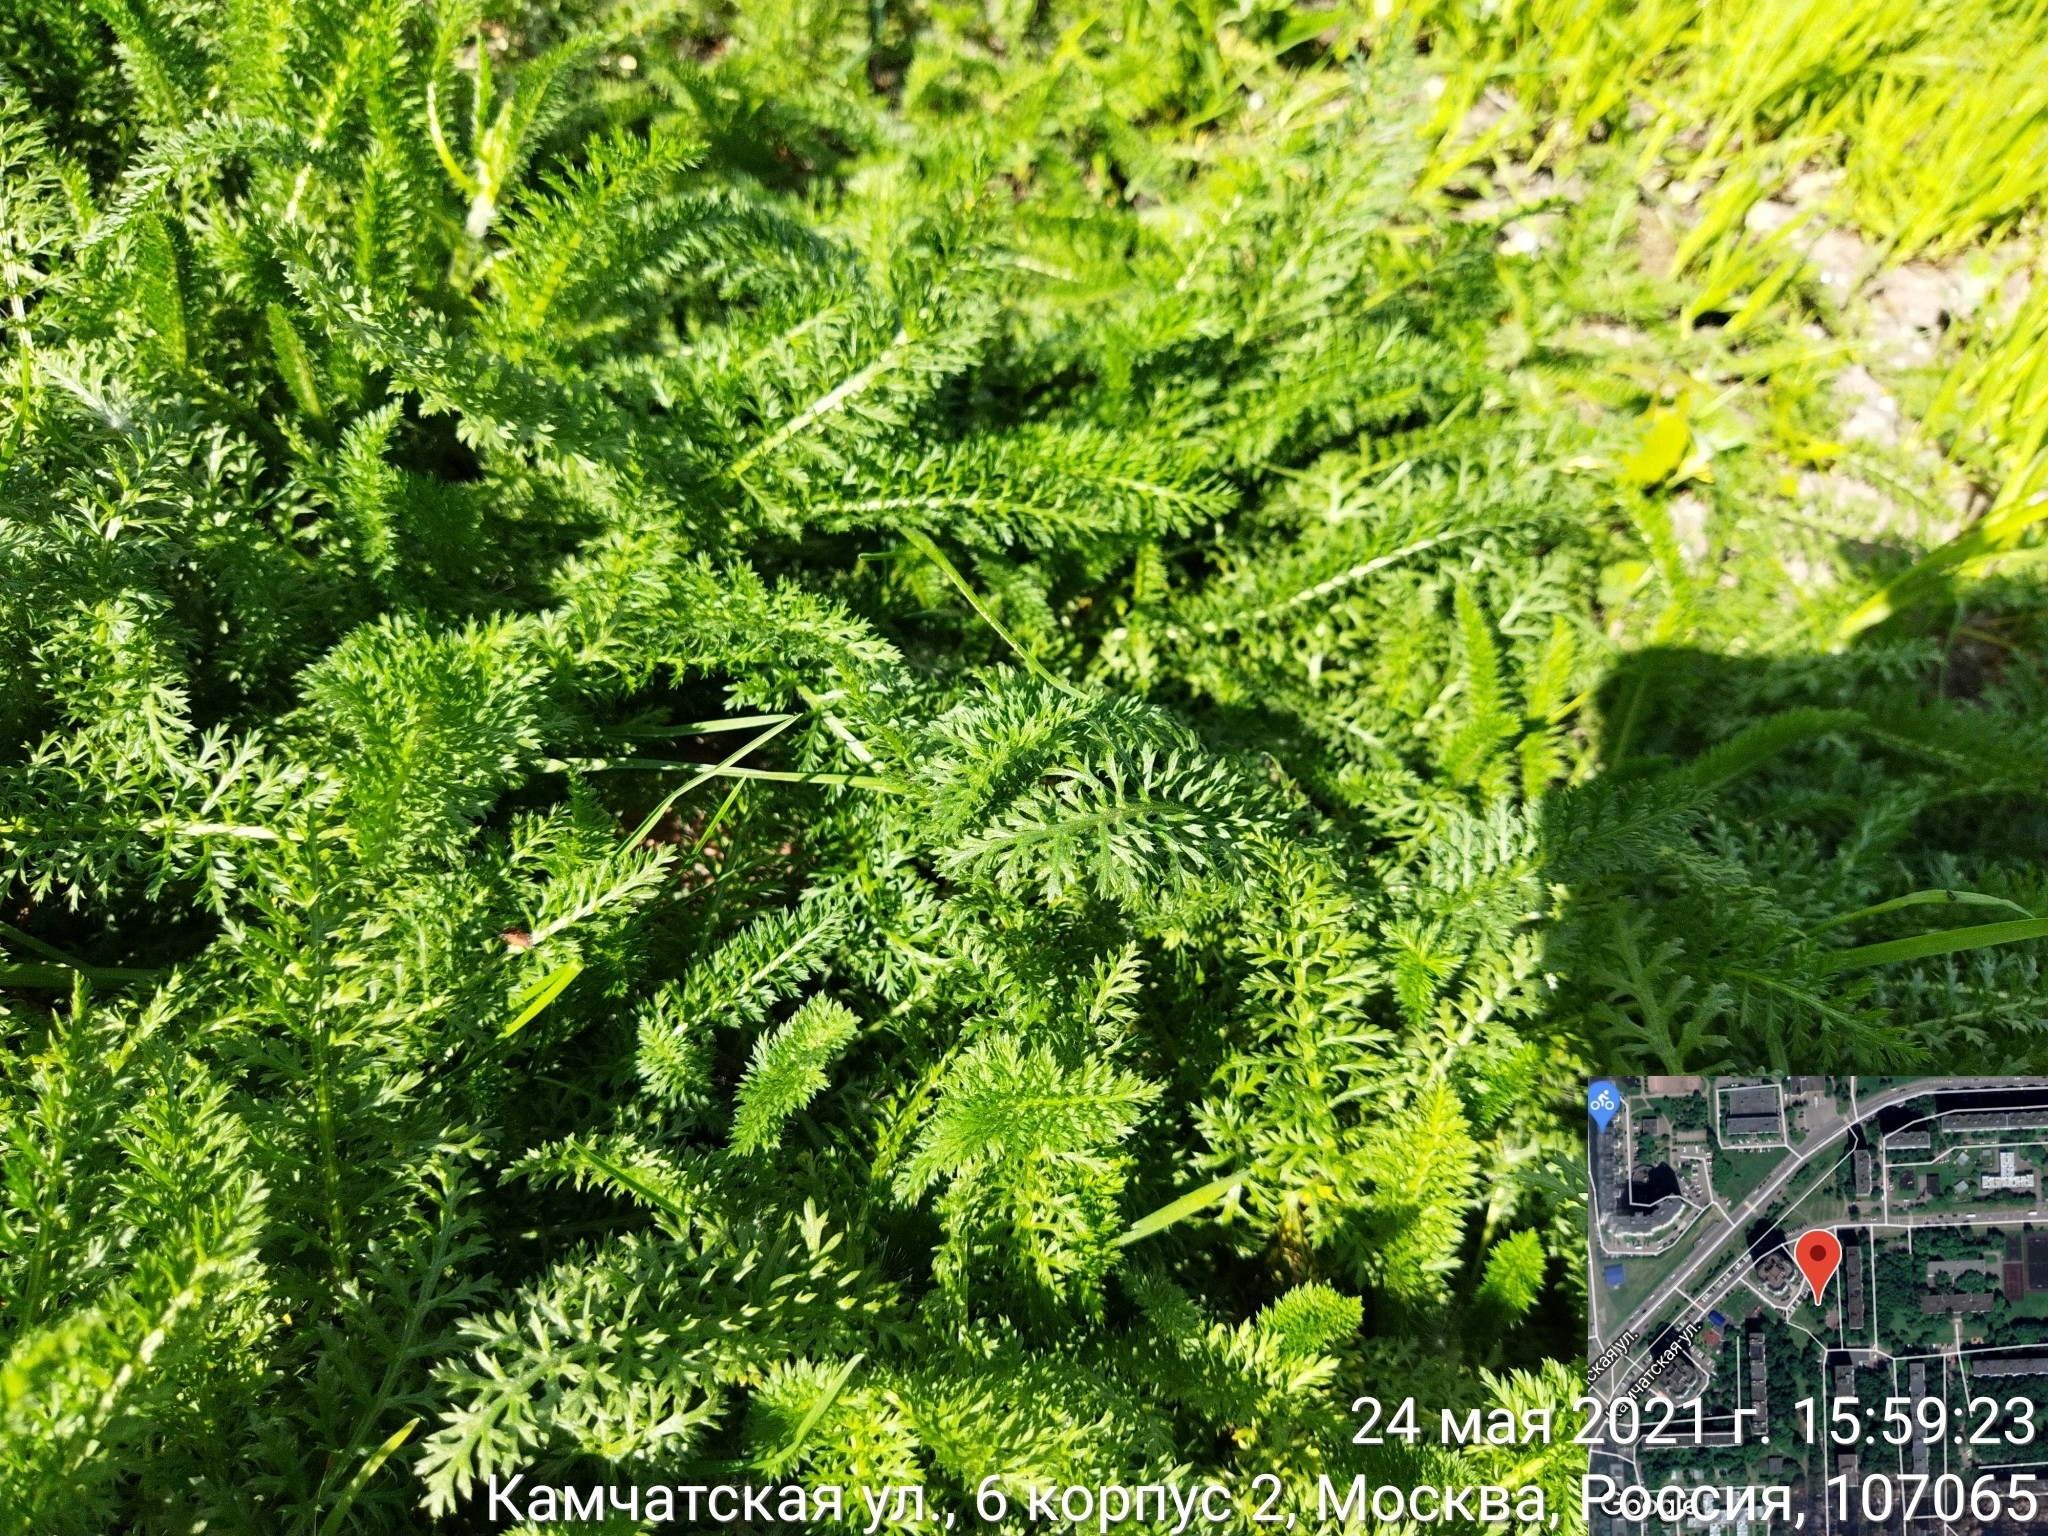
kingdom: Plantae
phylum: Tracheophyta
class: Magnoliopsida
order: Asterales
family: Asteraceae
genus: Achillea
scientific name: Achillea millefolium
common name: Yarrow
